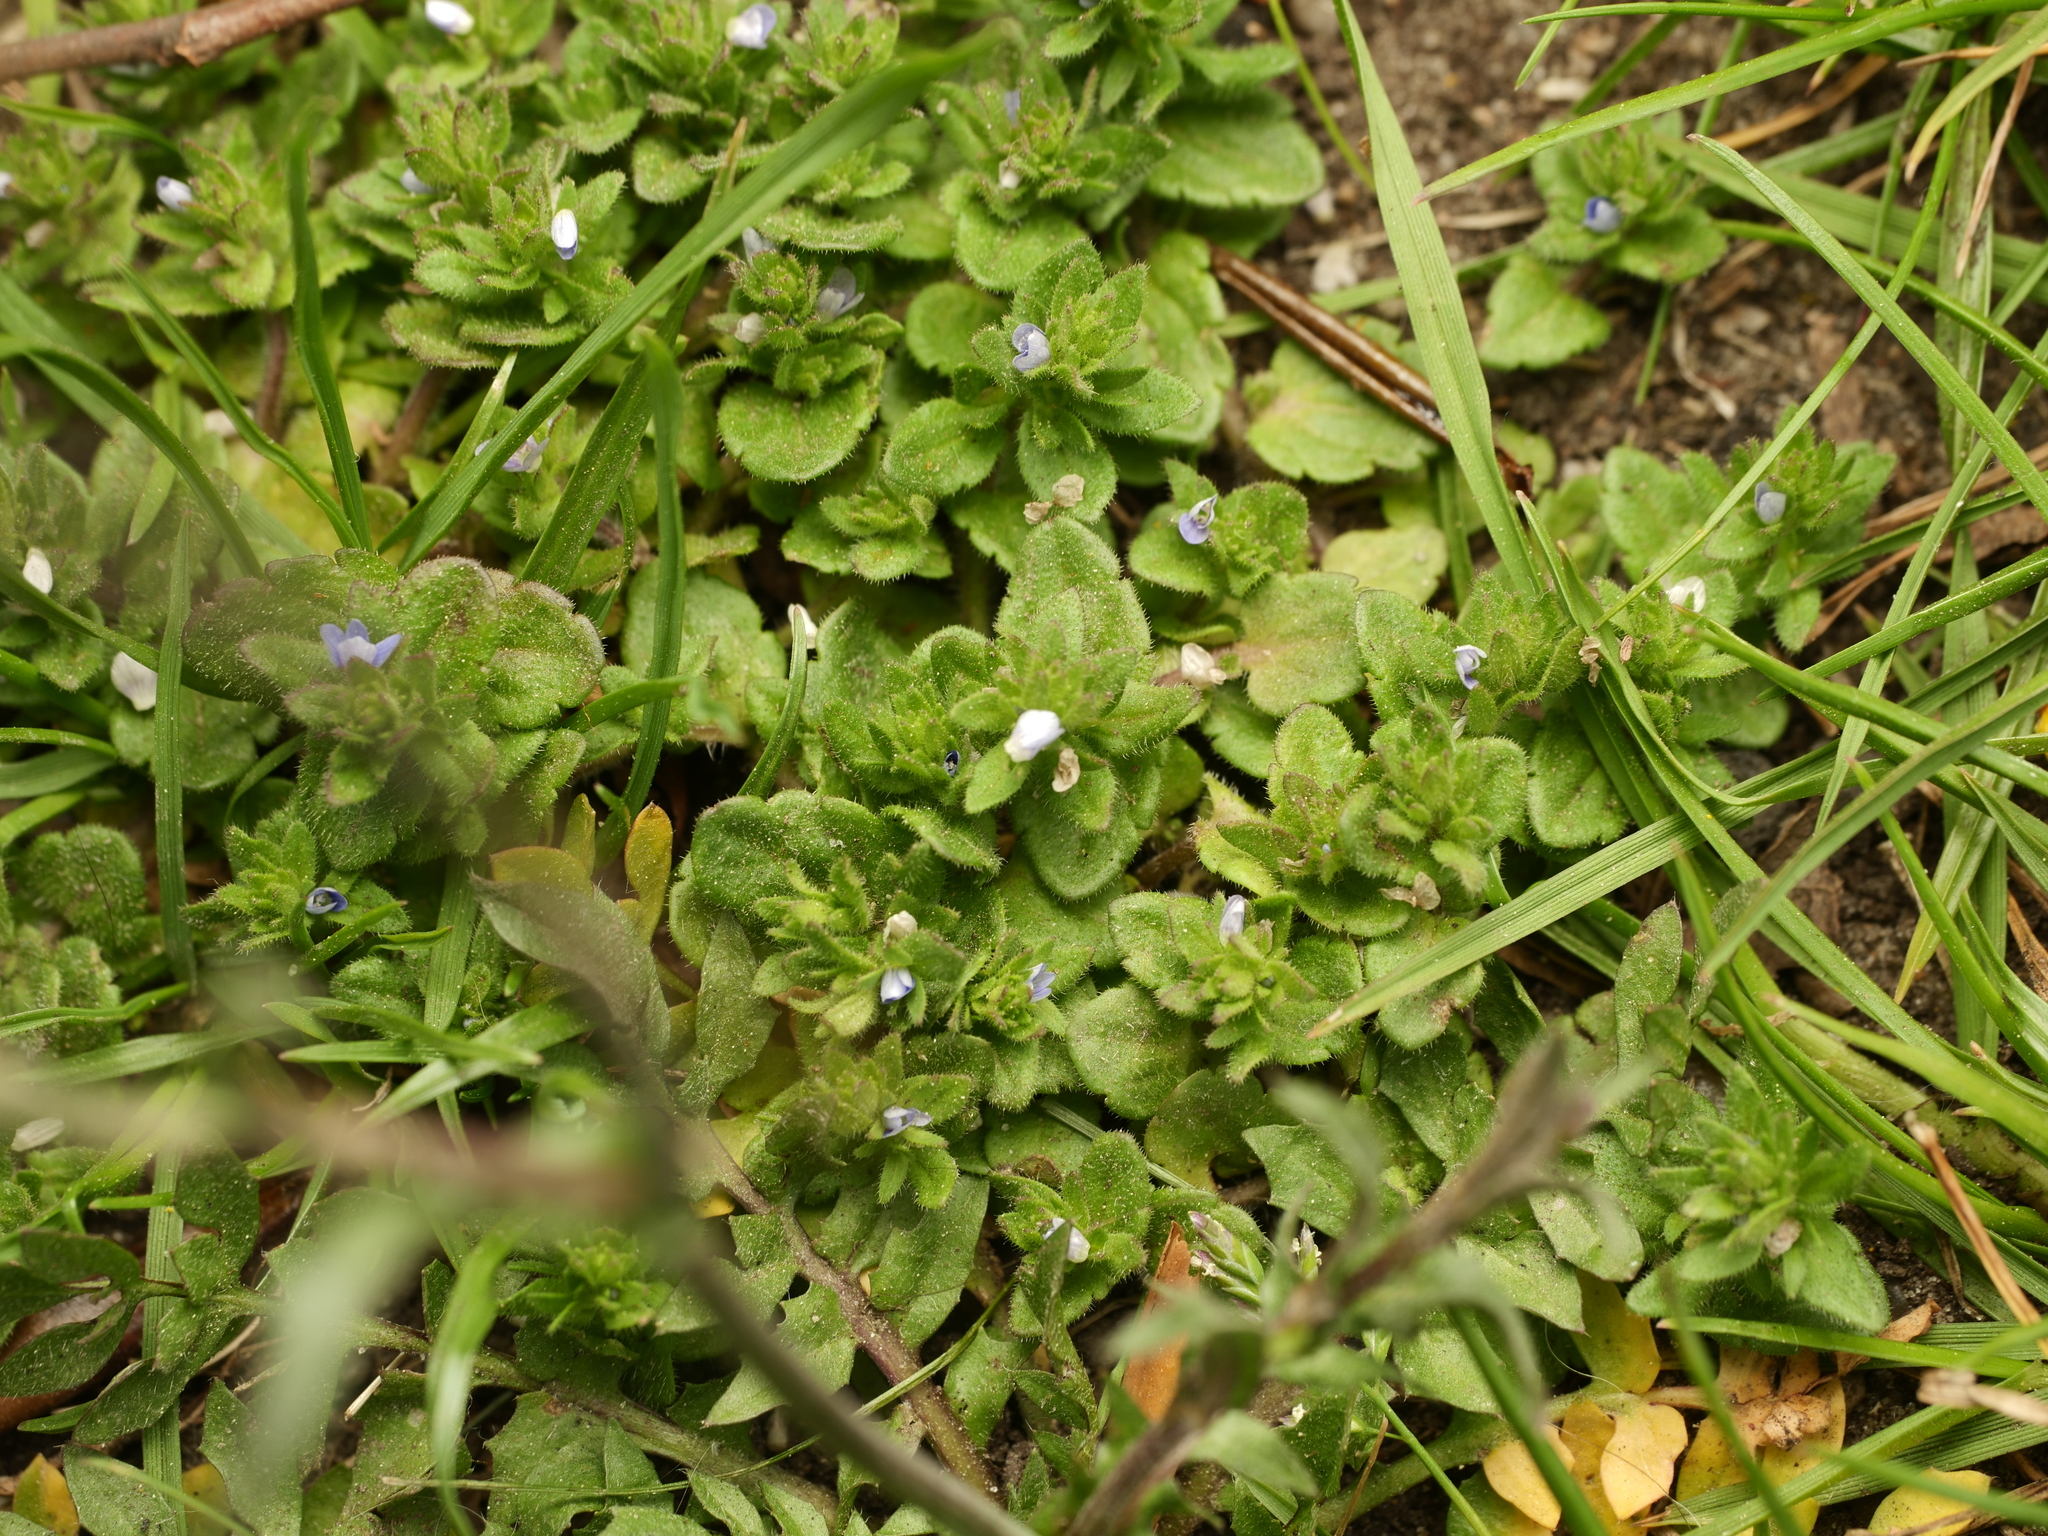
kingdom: Plantae
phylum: Tracheophyta
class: Magnoliopsida
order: Lamiales
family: Plantaginaceae
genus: Veronica
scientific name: Veronica arvensis
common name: Corn speedwell
